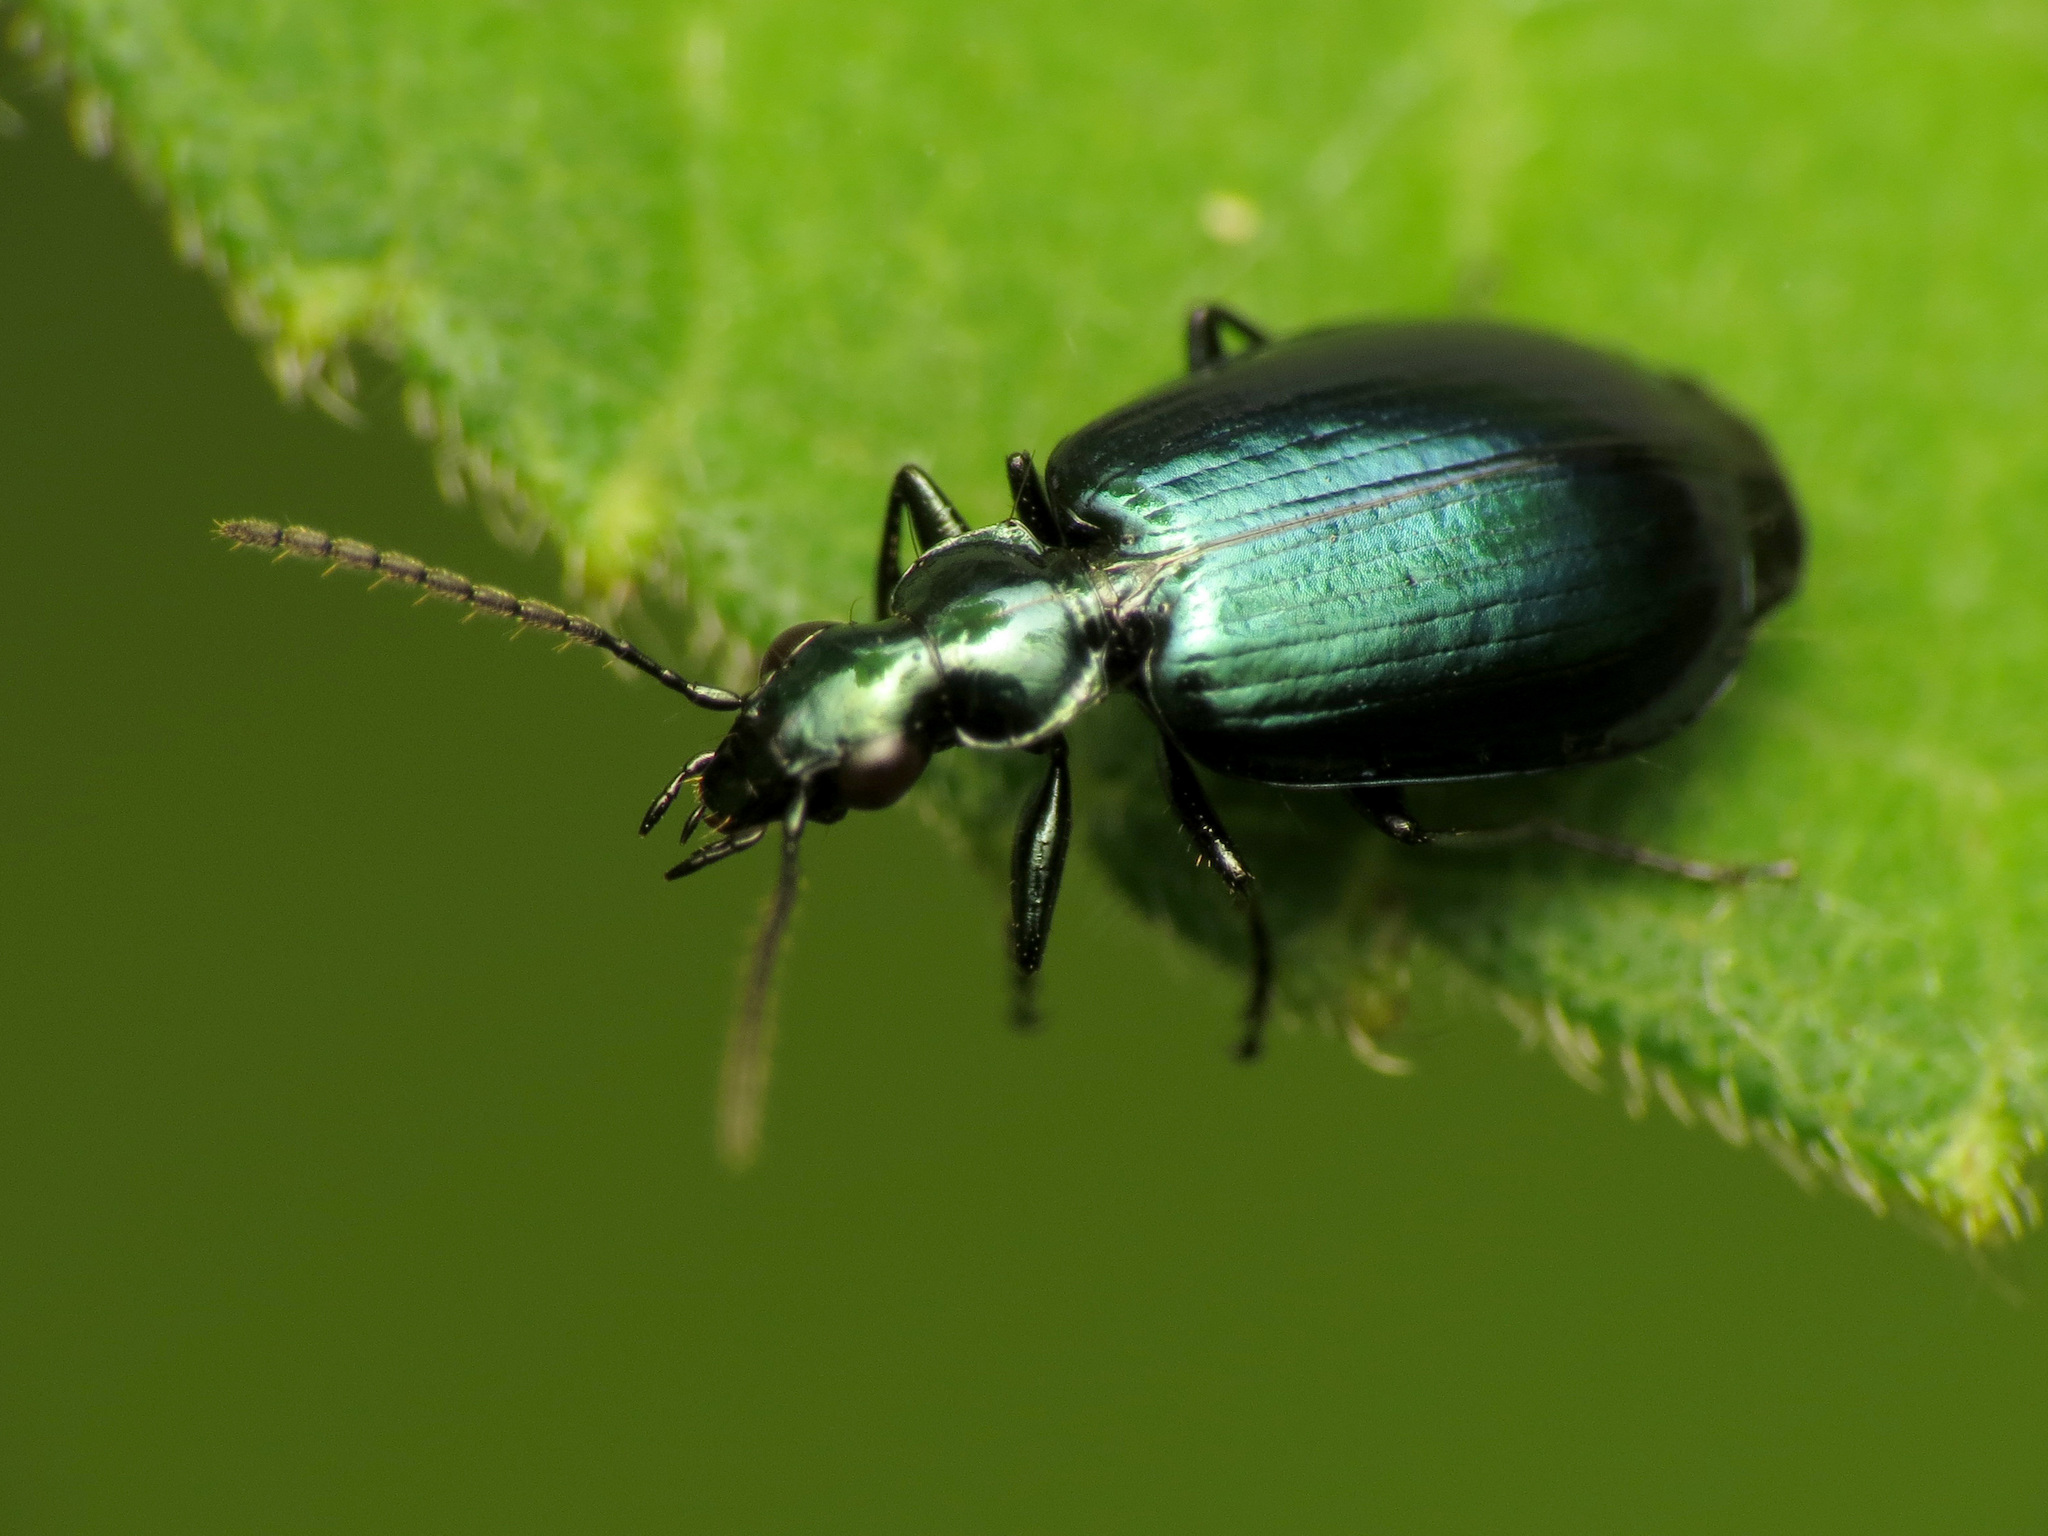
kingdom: Animalia
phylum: Arthropoda
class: Insecta
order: Coleoptera
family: Carabidae
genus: Lebia
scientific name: Lebia viridis
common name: Flower lebia beetle
